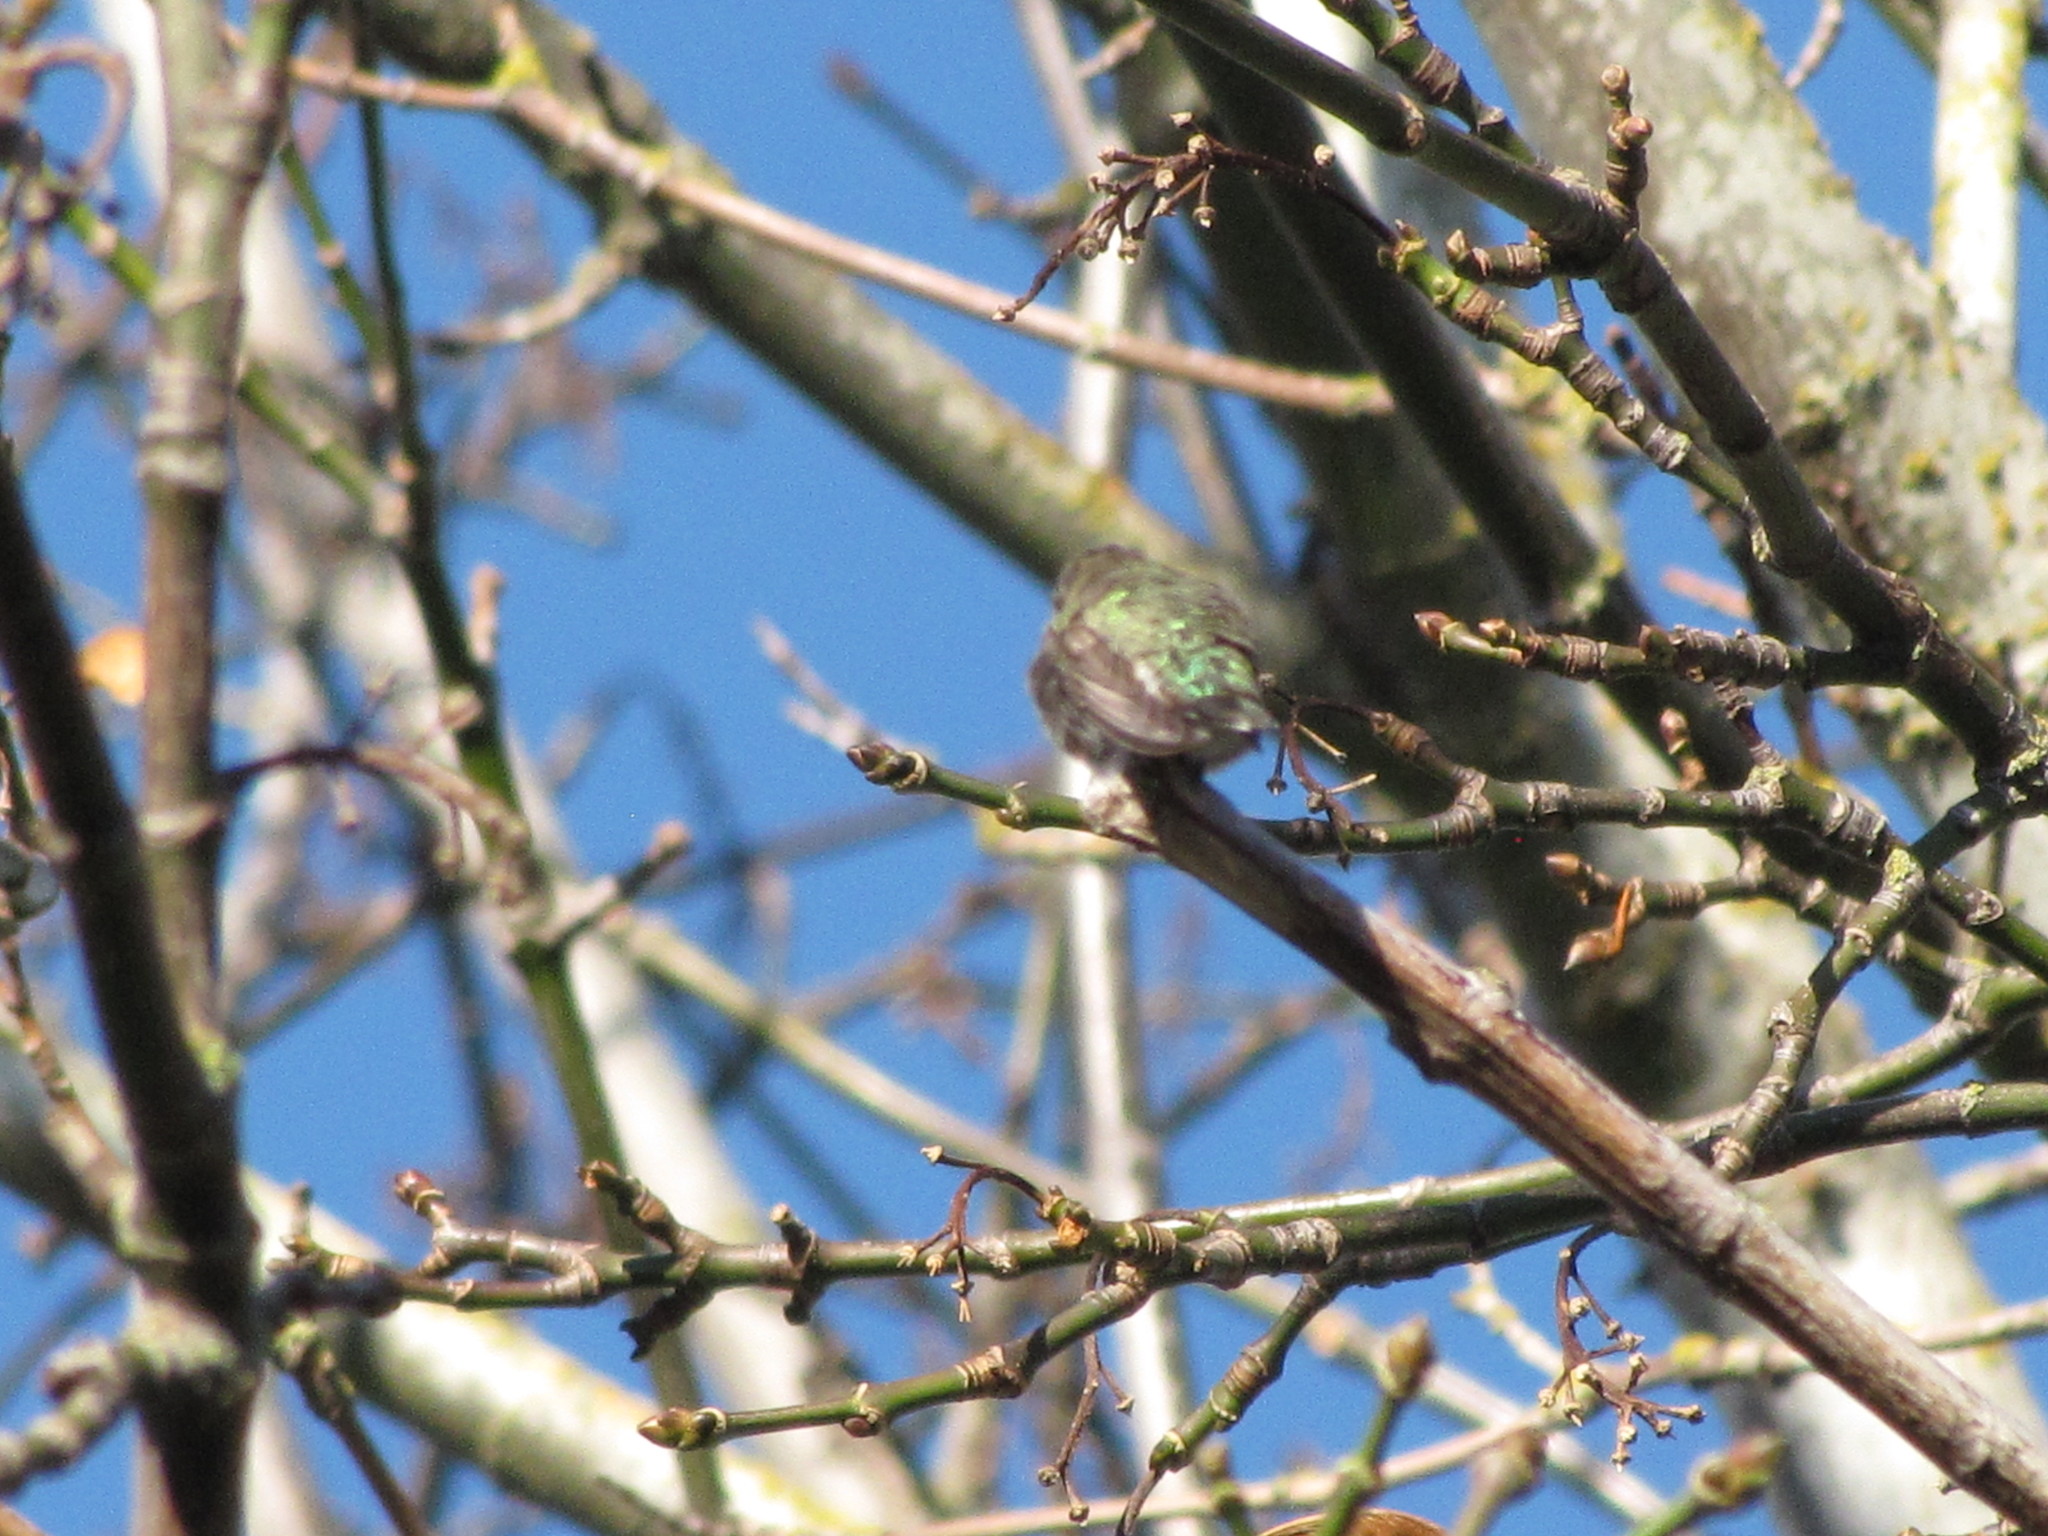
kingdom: Animalia
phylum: Chordata
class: Aves
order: Apodiformes
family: Trochilidae
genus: Calypte
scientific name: Calypte anna
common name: Anna's hummingbird
